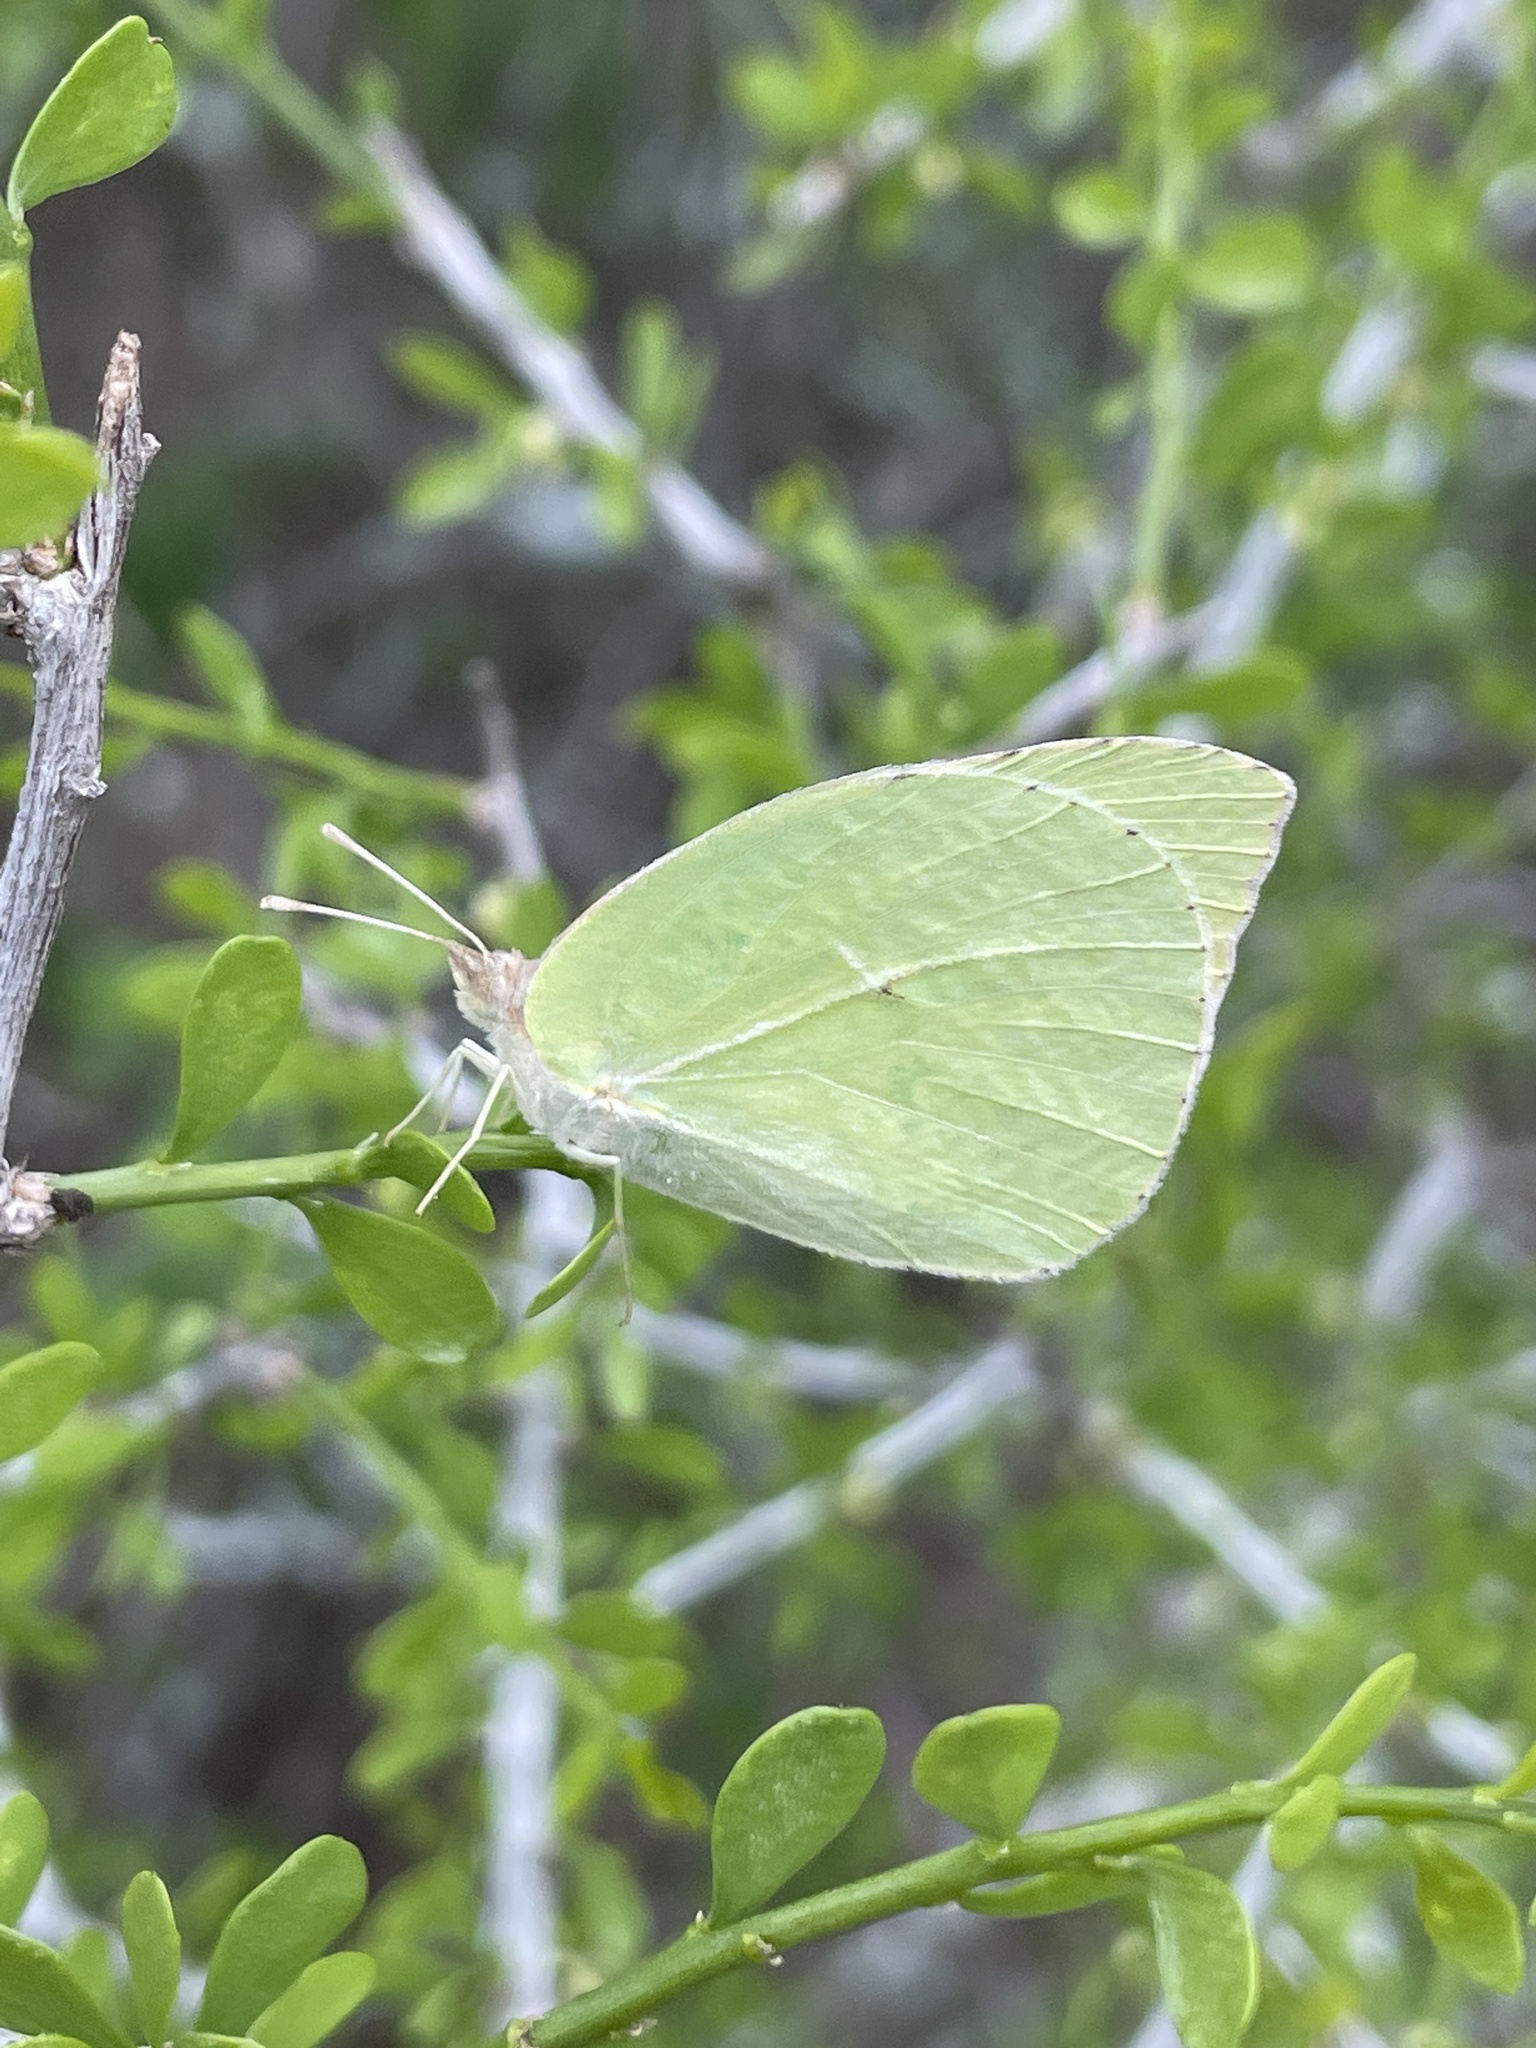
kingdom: Animalia
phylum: Arthropoda
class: Insecta
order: Lepidoptera
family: Pieridae
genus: Kricogonia
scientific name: Kricogonia lyside
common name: Guayacan sulphur,
